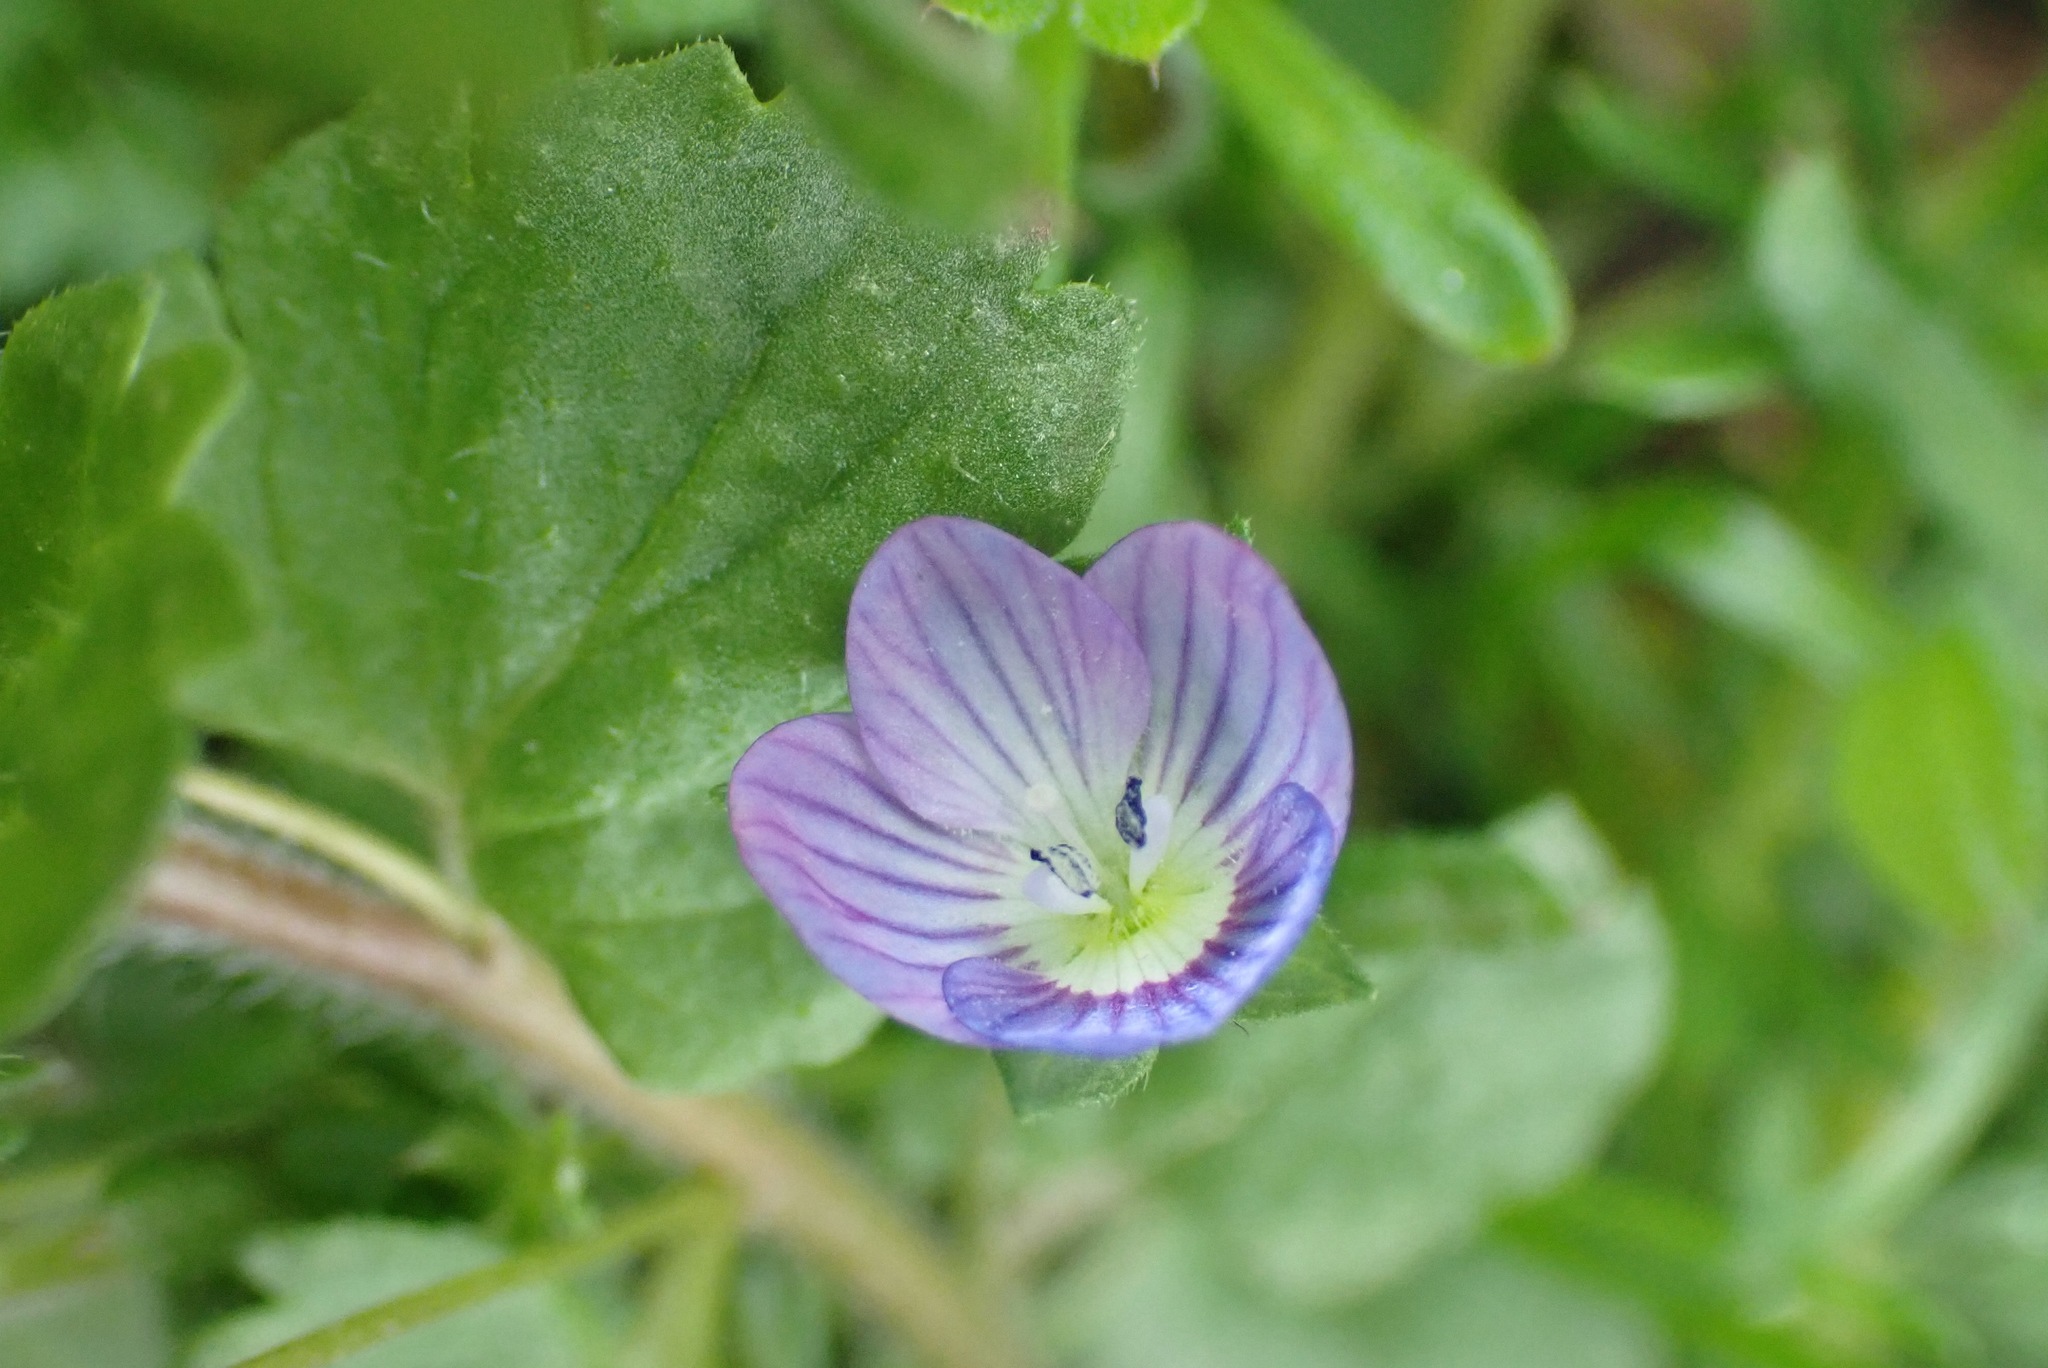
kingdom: Plantae
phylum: Tracheophyta
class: Magnoliopsida
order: Lamiales
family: Plantaginaceae
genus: Veronica
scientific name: Veronica persica
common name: Common field-speedwell
